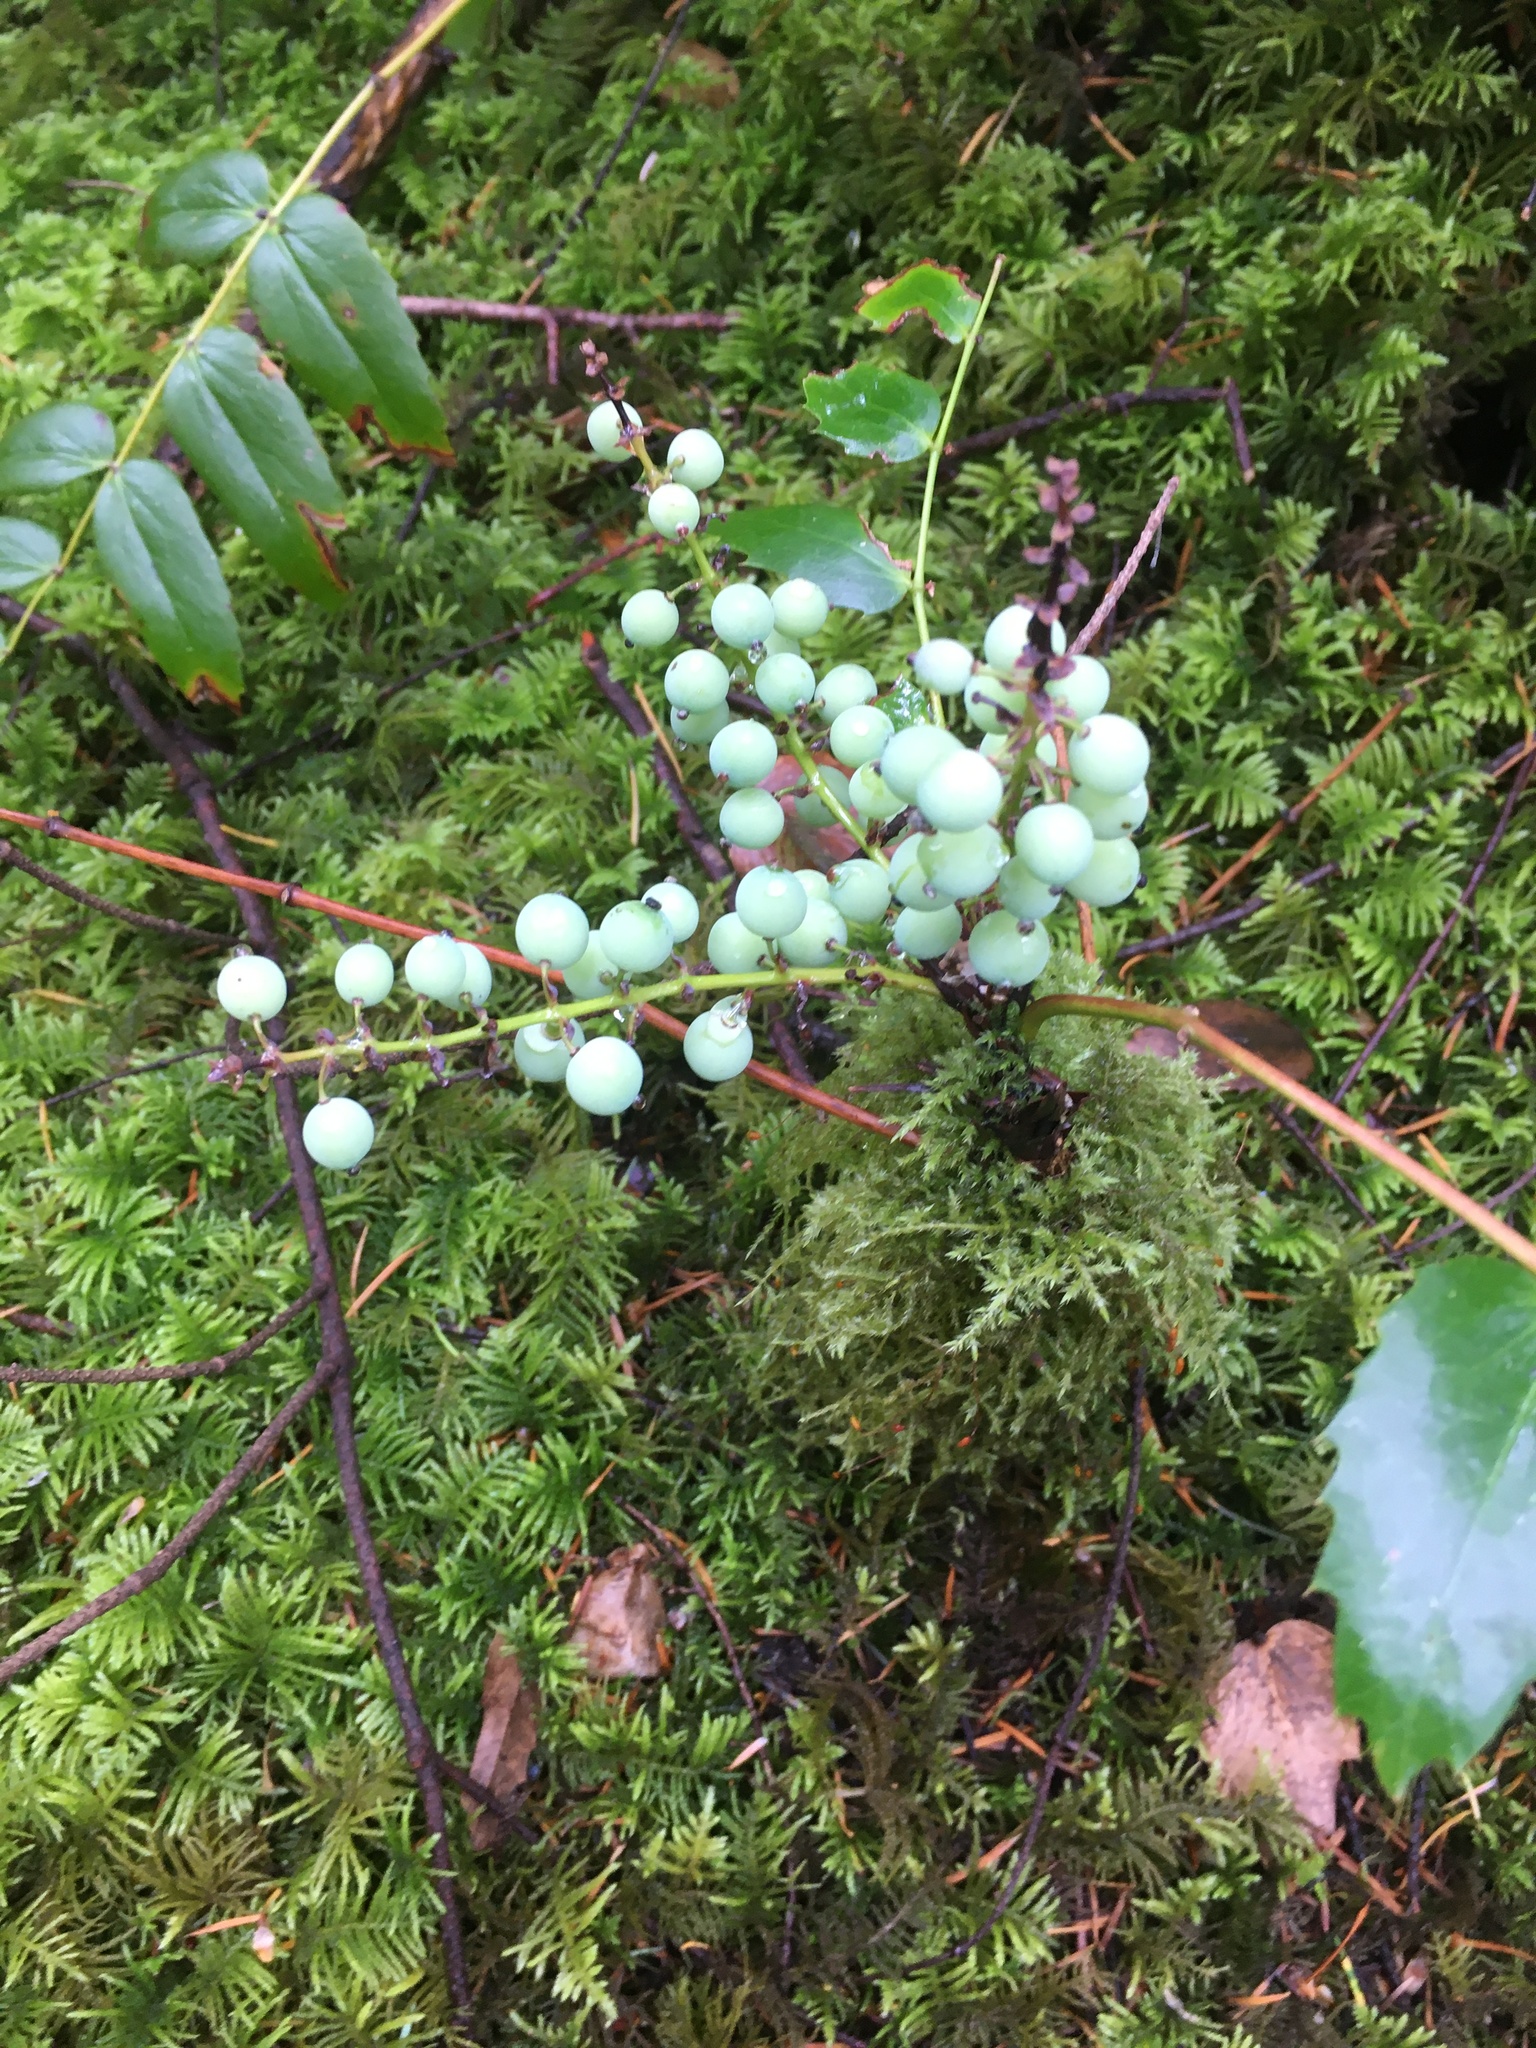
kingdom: Plantae
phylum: Tracheophyta
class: Magnoliopsida
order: Ranunculales
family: Berberidaceae
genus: Mahonia
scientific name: Mahonia nervosa
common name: Cascade oregon-grape
